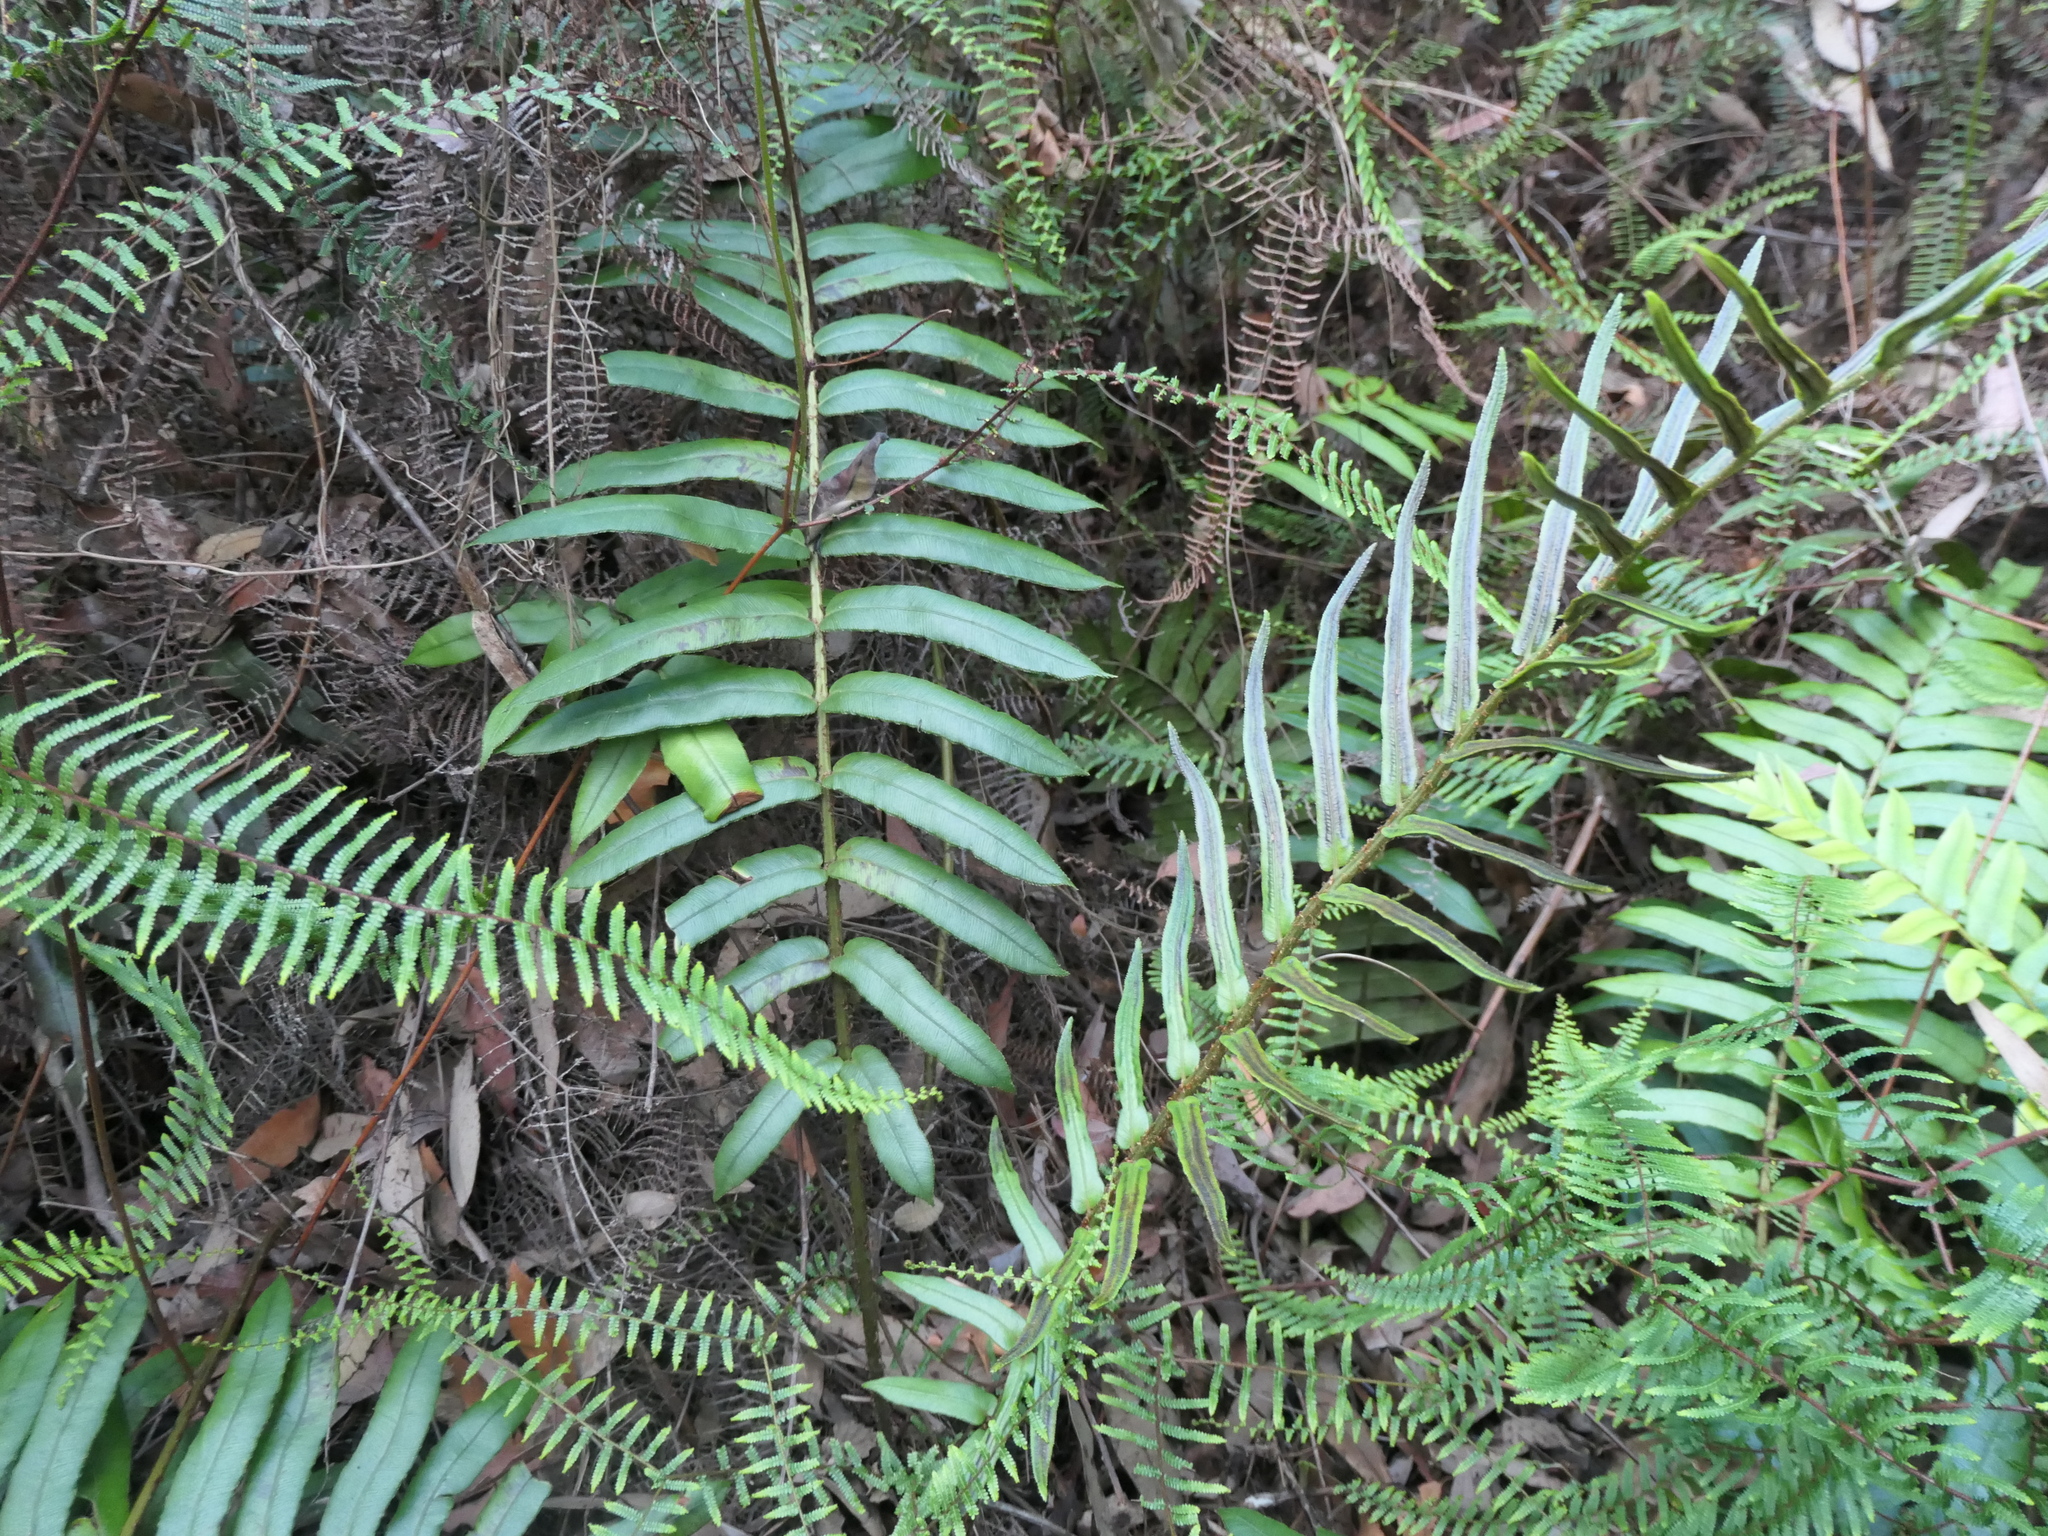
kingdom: Plantae
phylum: Tracheophyta
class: Polypodiopsida
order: Polypodiales
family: Blechnaceae
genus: Parablechnum
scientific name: Parablechnum gregsonii
